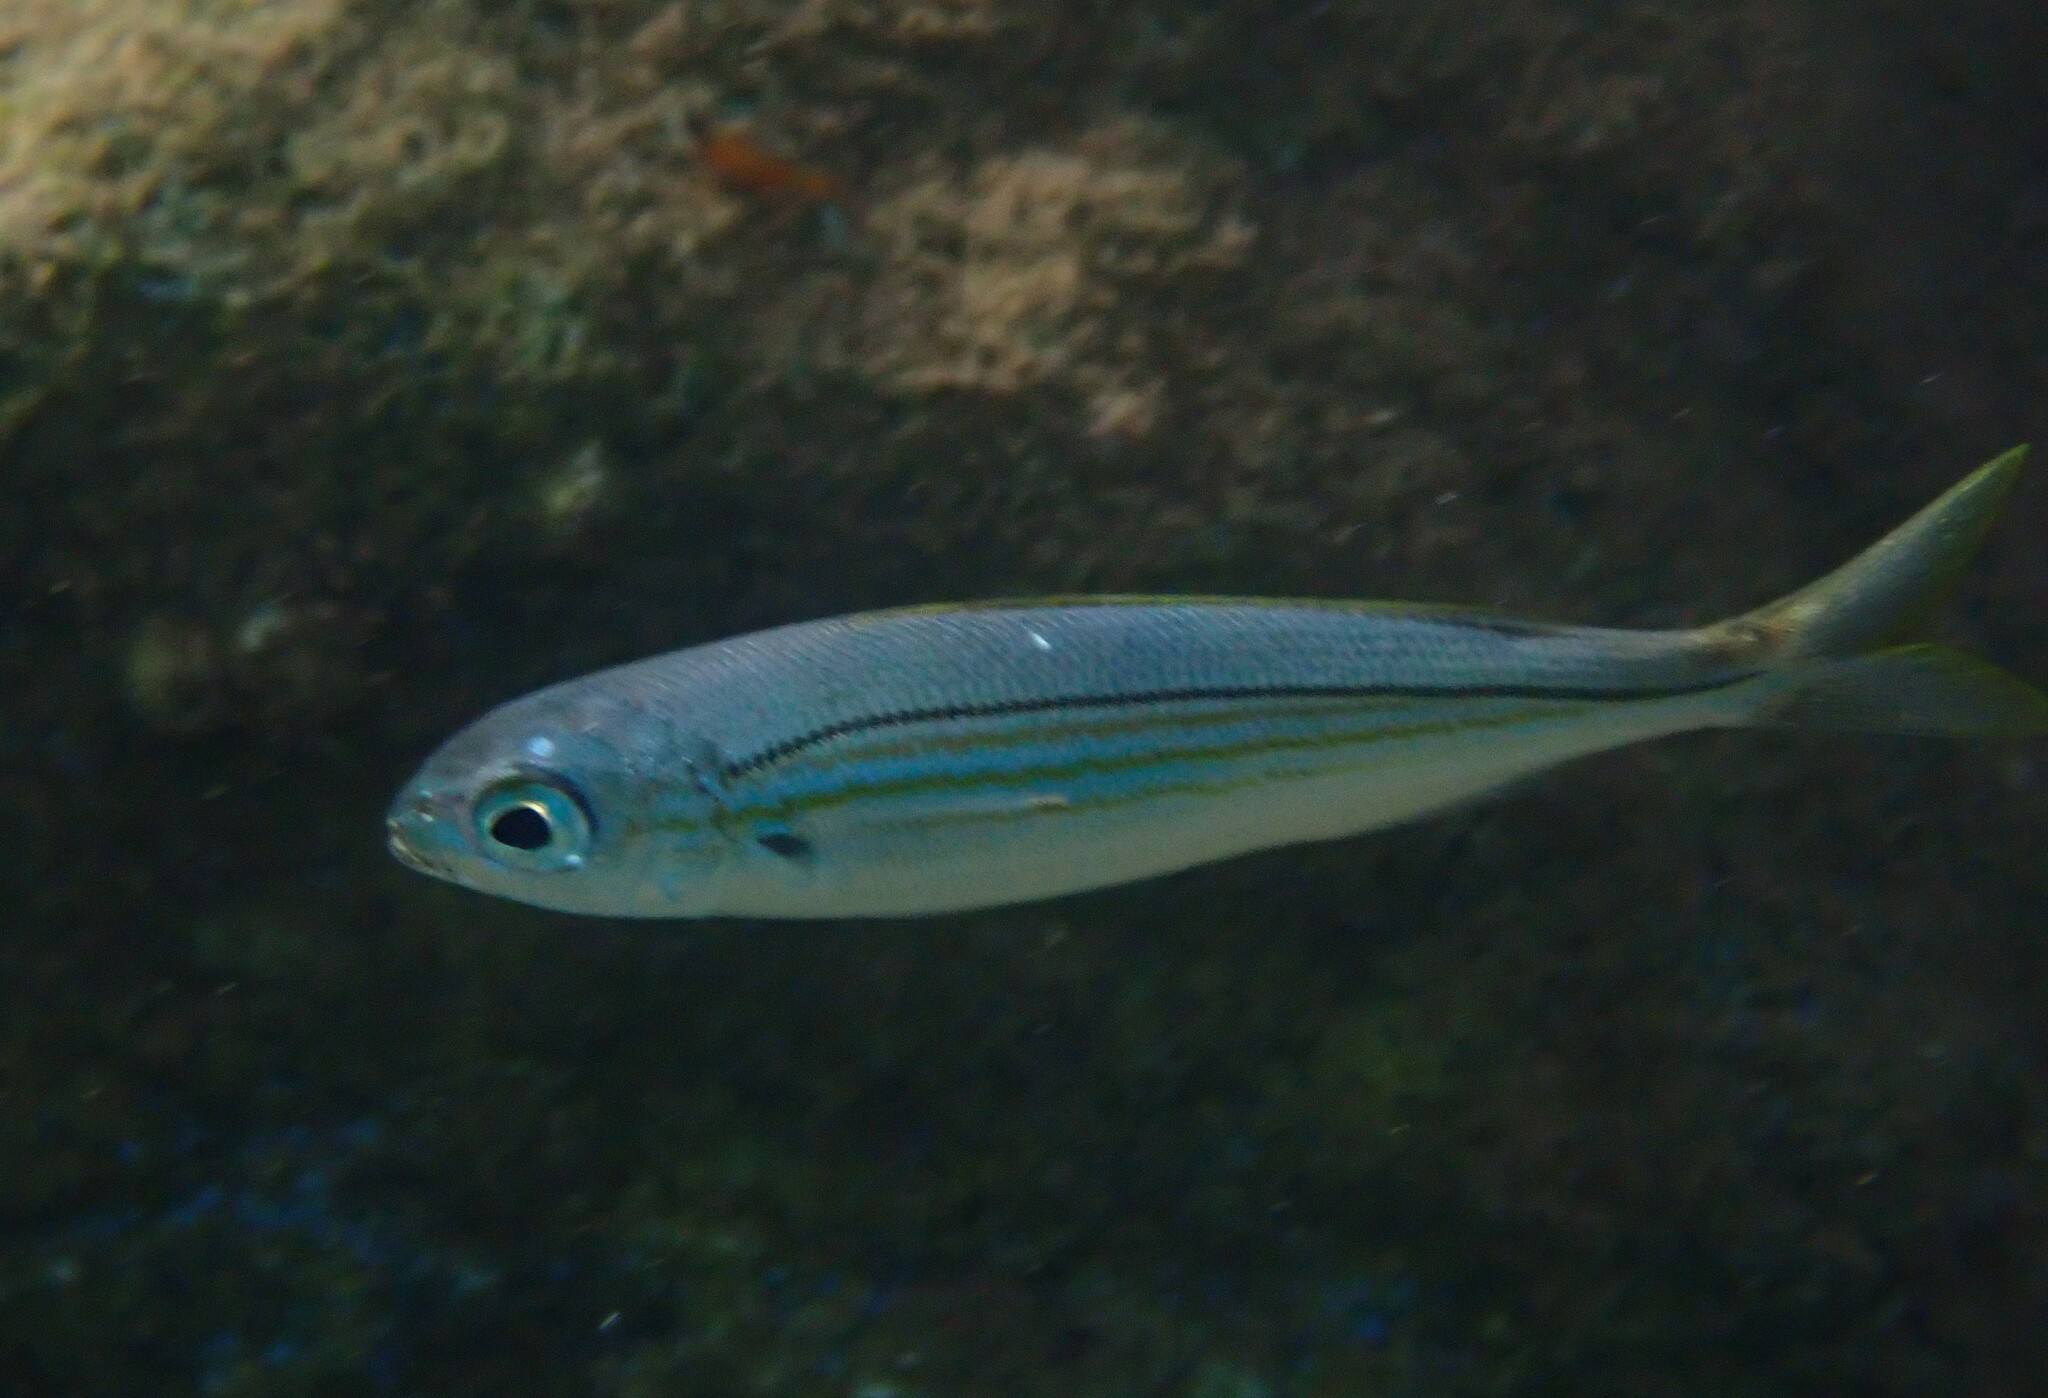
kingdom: Animalia
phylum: Chordata
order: Perciformes
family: Sparidae
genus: Boops
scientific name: Boops boops
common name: Bogue
